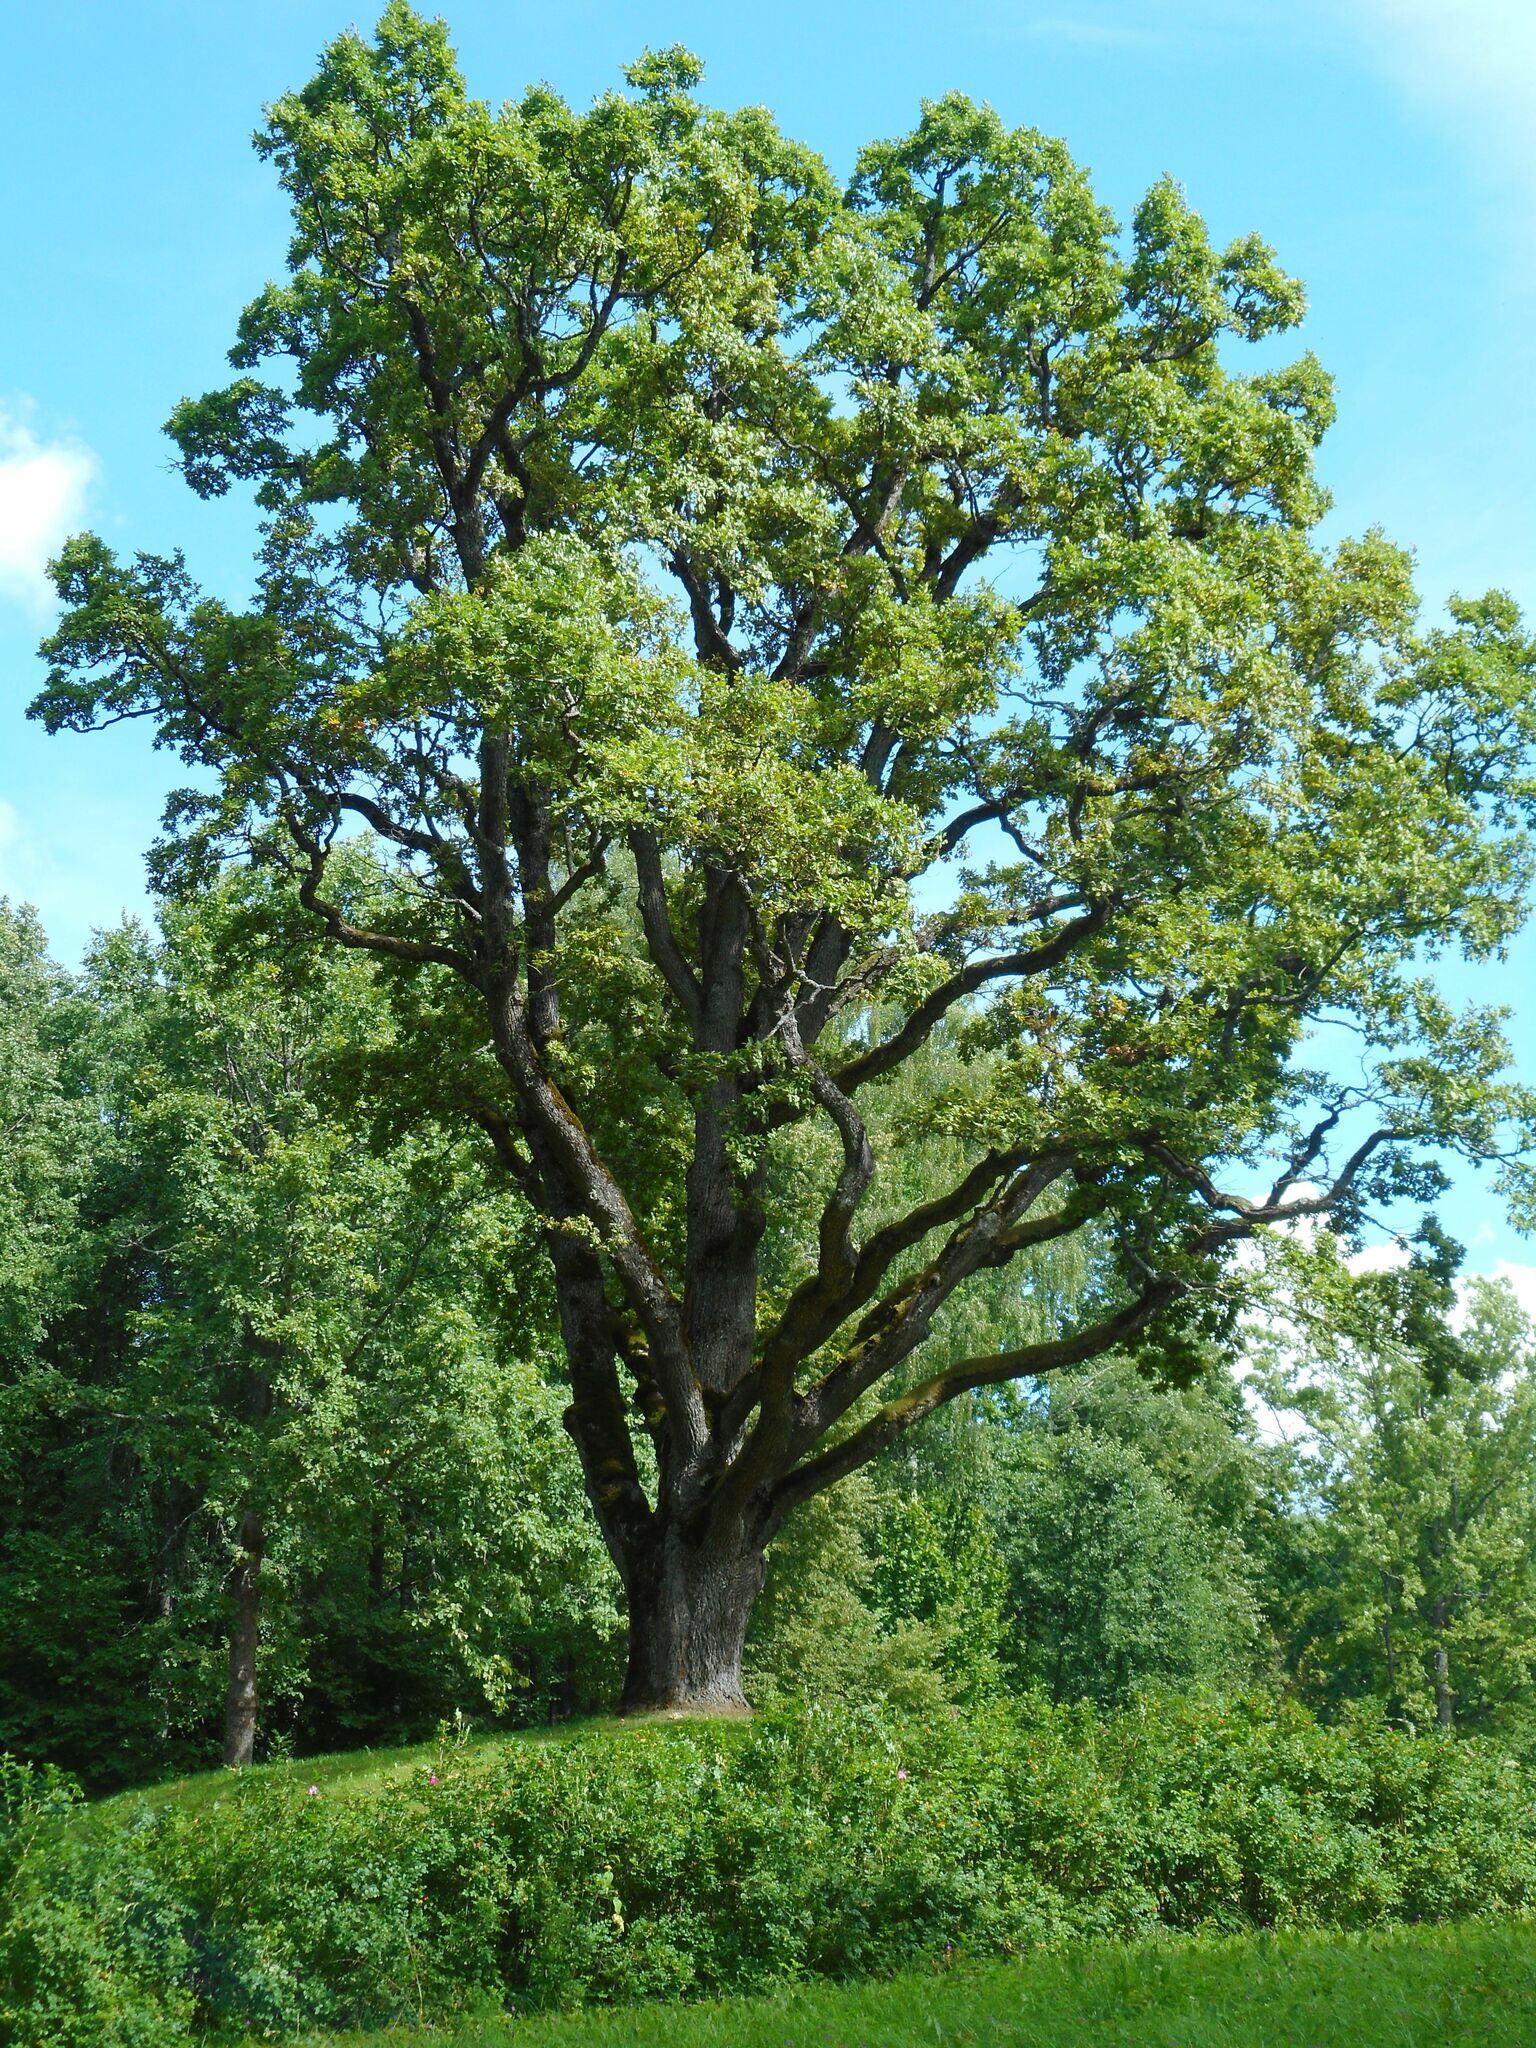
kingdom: Plantae
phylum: Tracheophyta
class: Magnoliopsida
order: Fagales
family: Fagaceae
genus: Quercus
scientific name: Quercus robur
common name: Pedunculate oak
